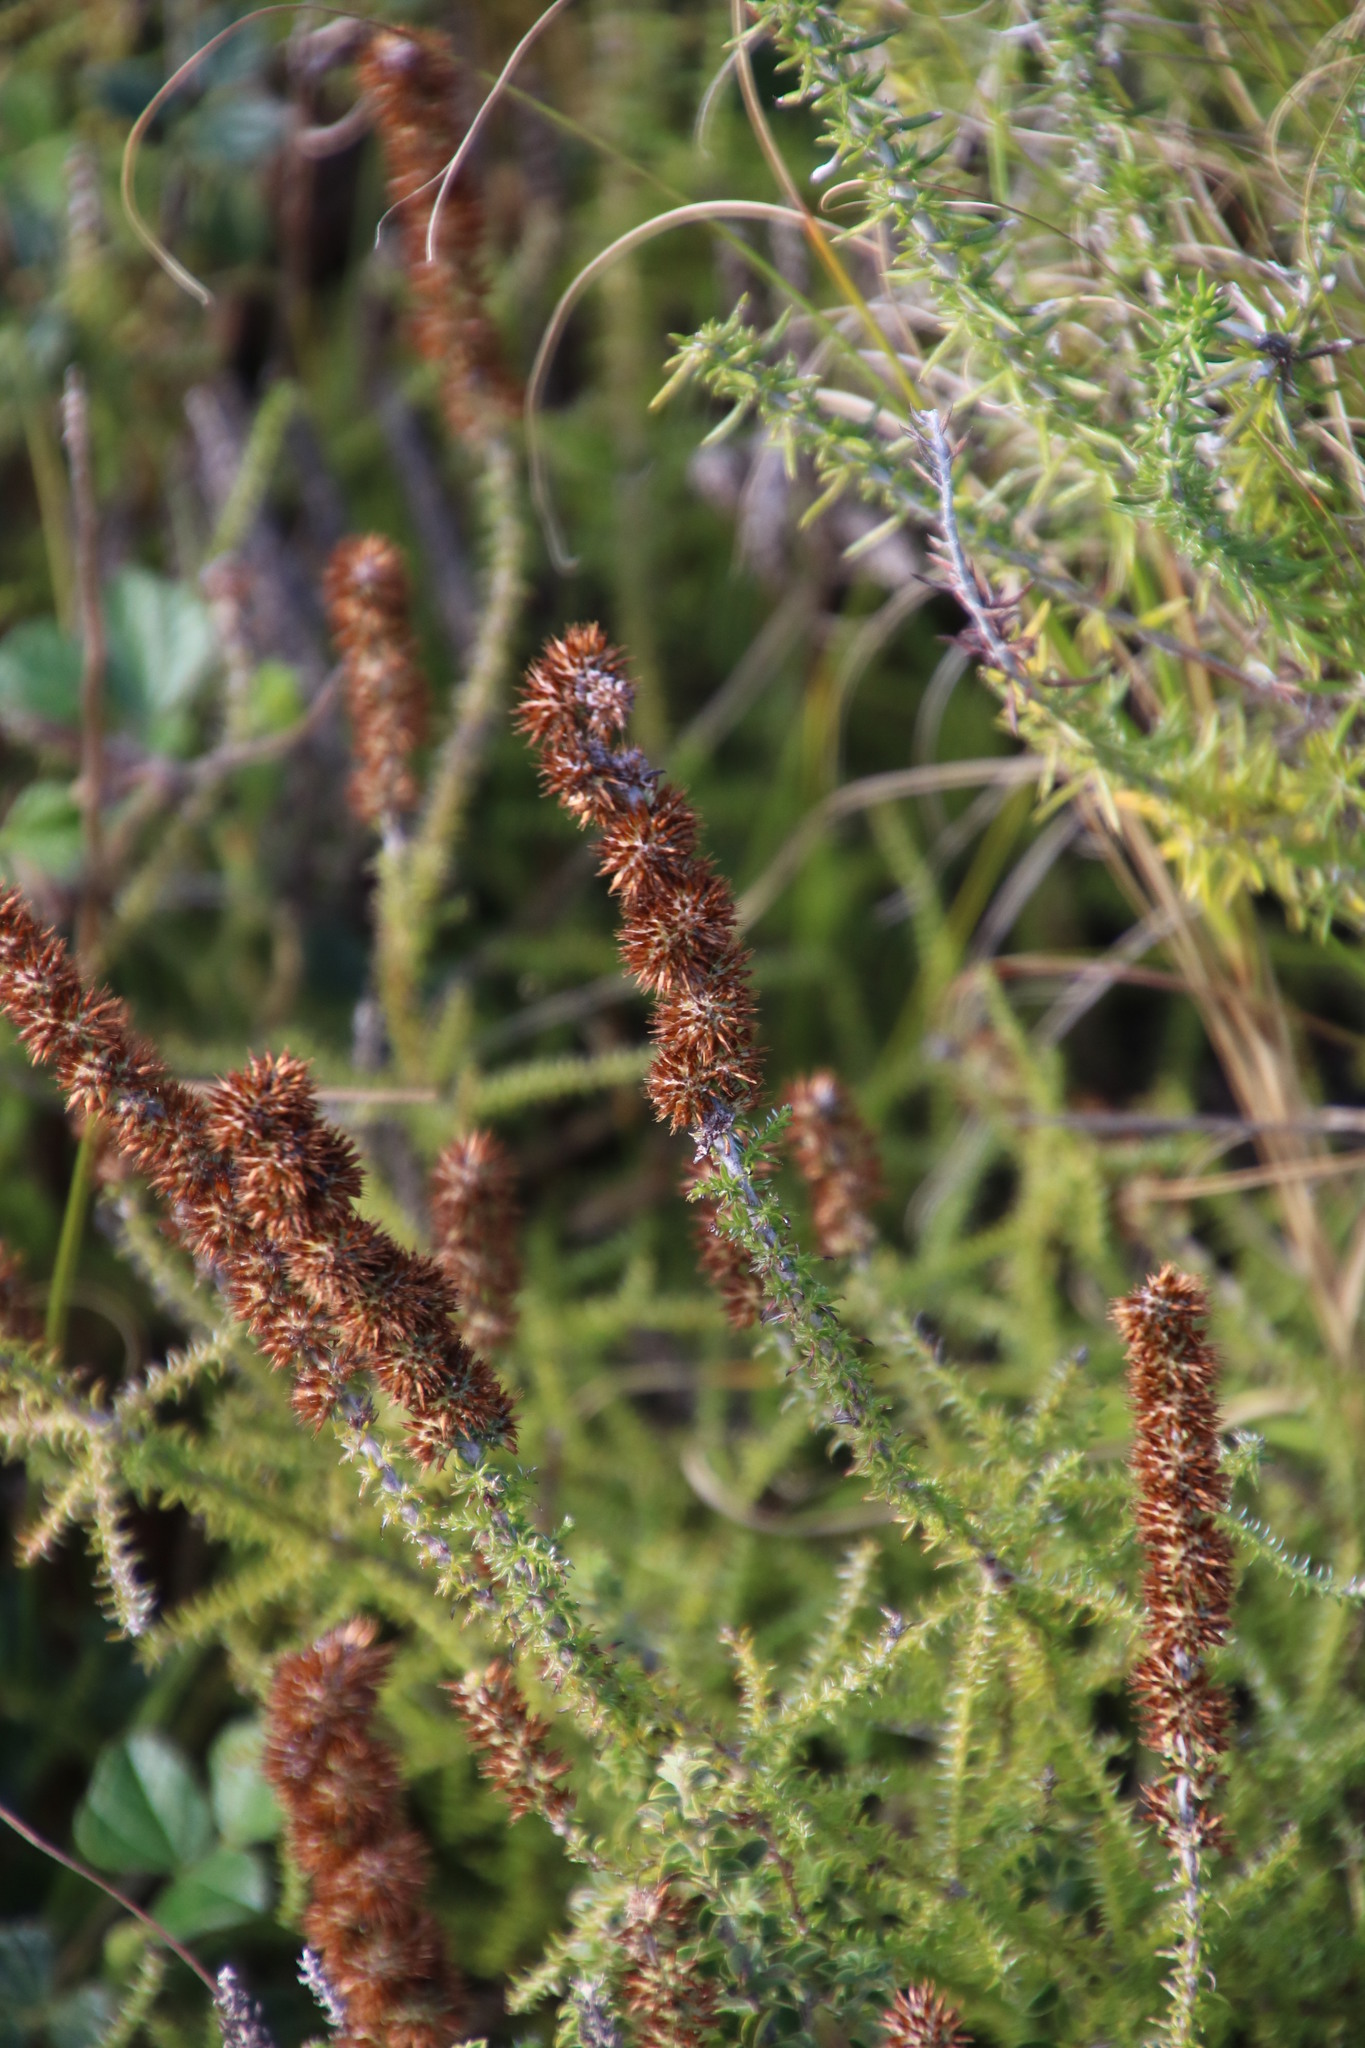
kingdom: Plantae
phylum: Tracheophyta
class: Magnoliopsida
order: Asterales
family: Asteraceae
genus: Seriphium
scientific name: Seriphium cinereum
